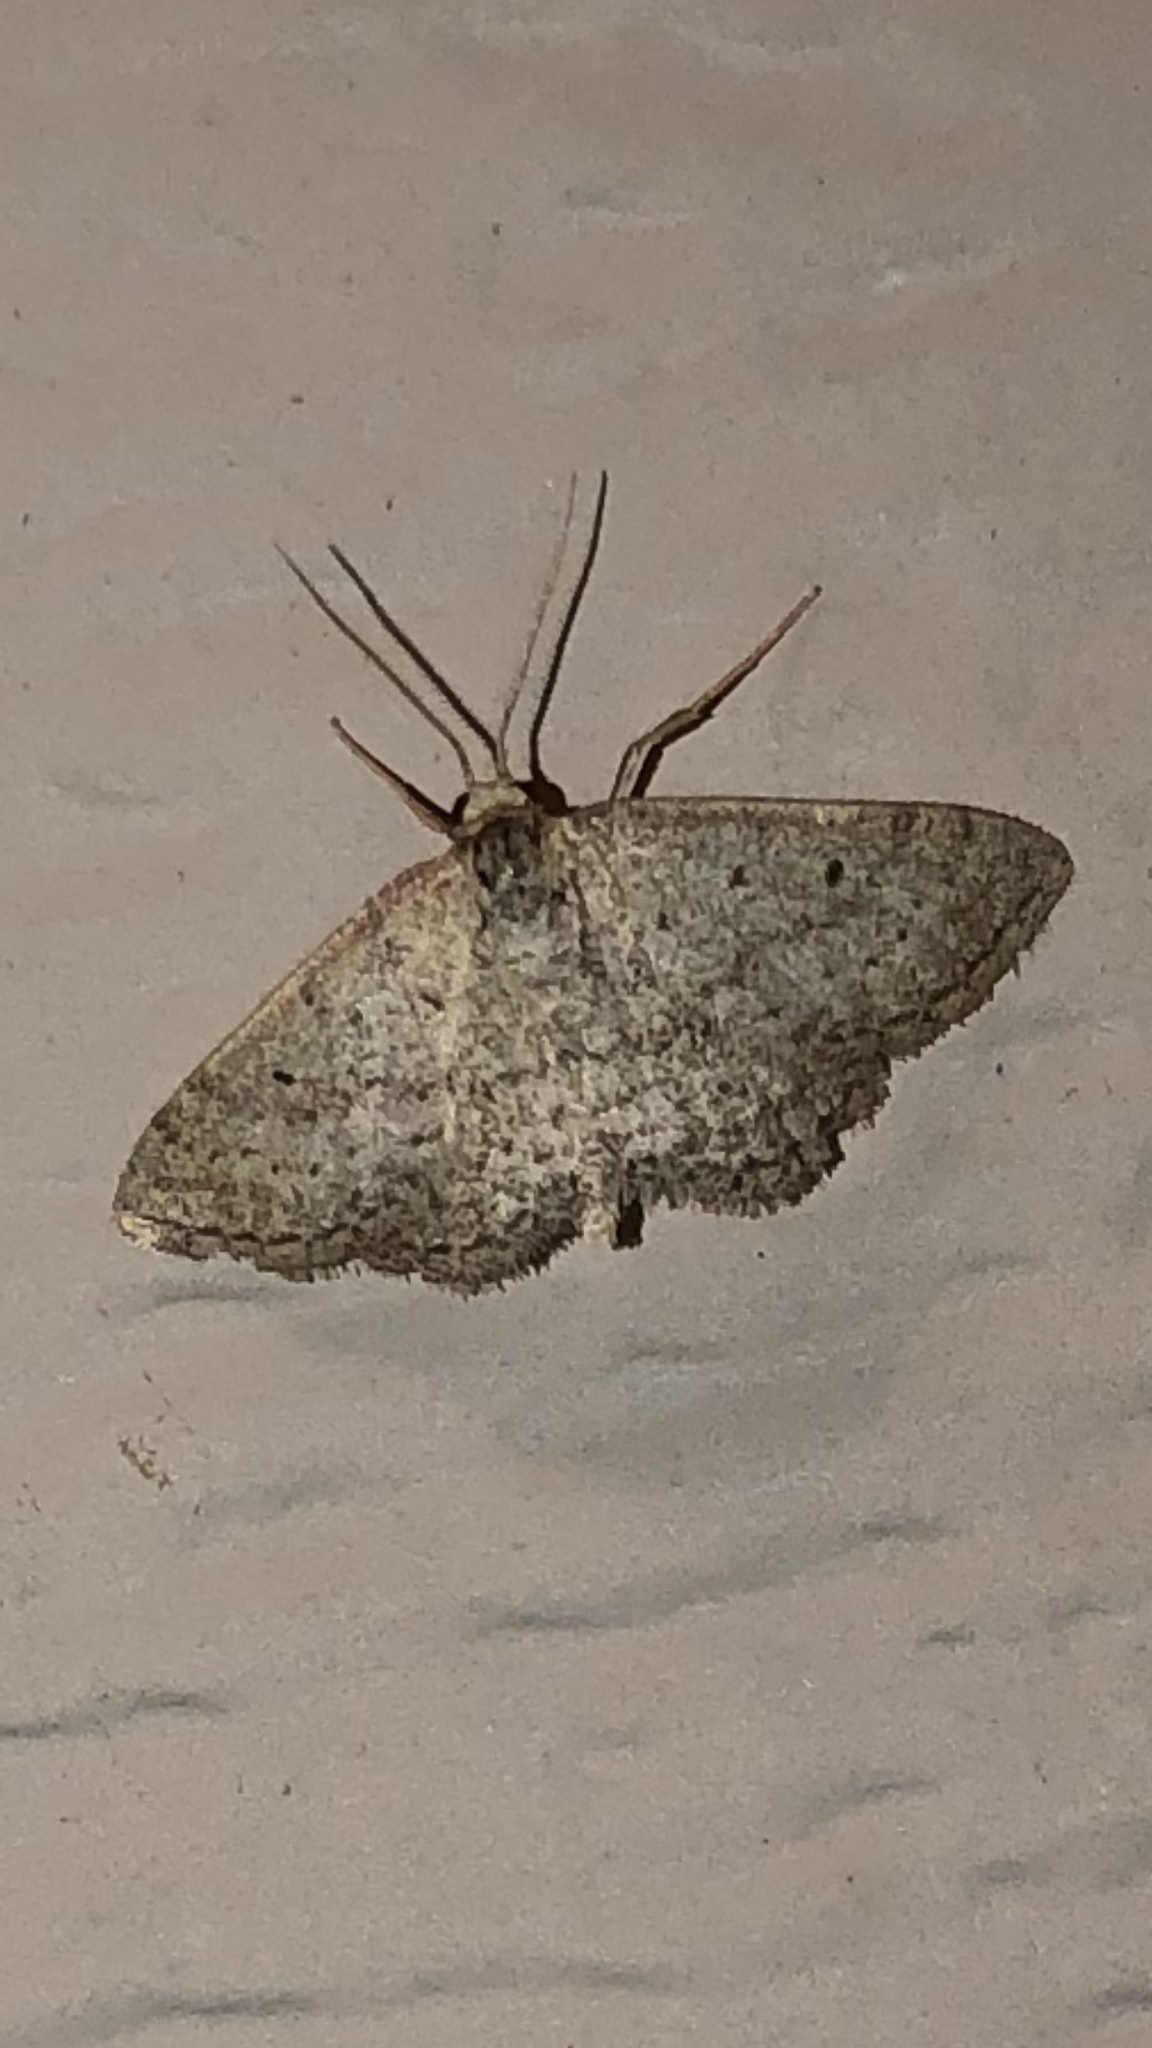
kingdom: Animalia
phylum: Arthropoda
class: Insecta
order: Lepidoptera
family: Geometridae
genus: Lobocleta
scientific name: Lobocleta ossularia
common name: Drab brown wave
